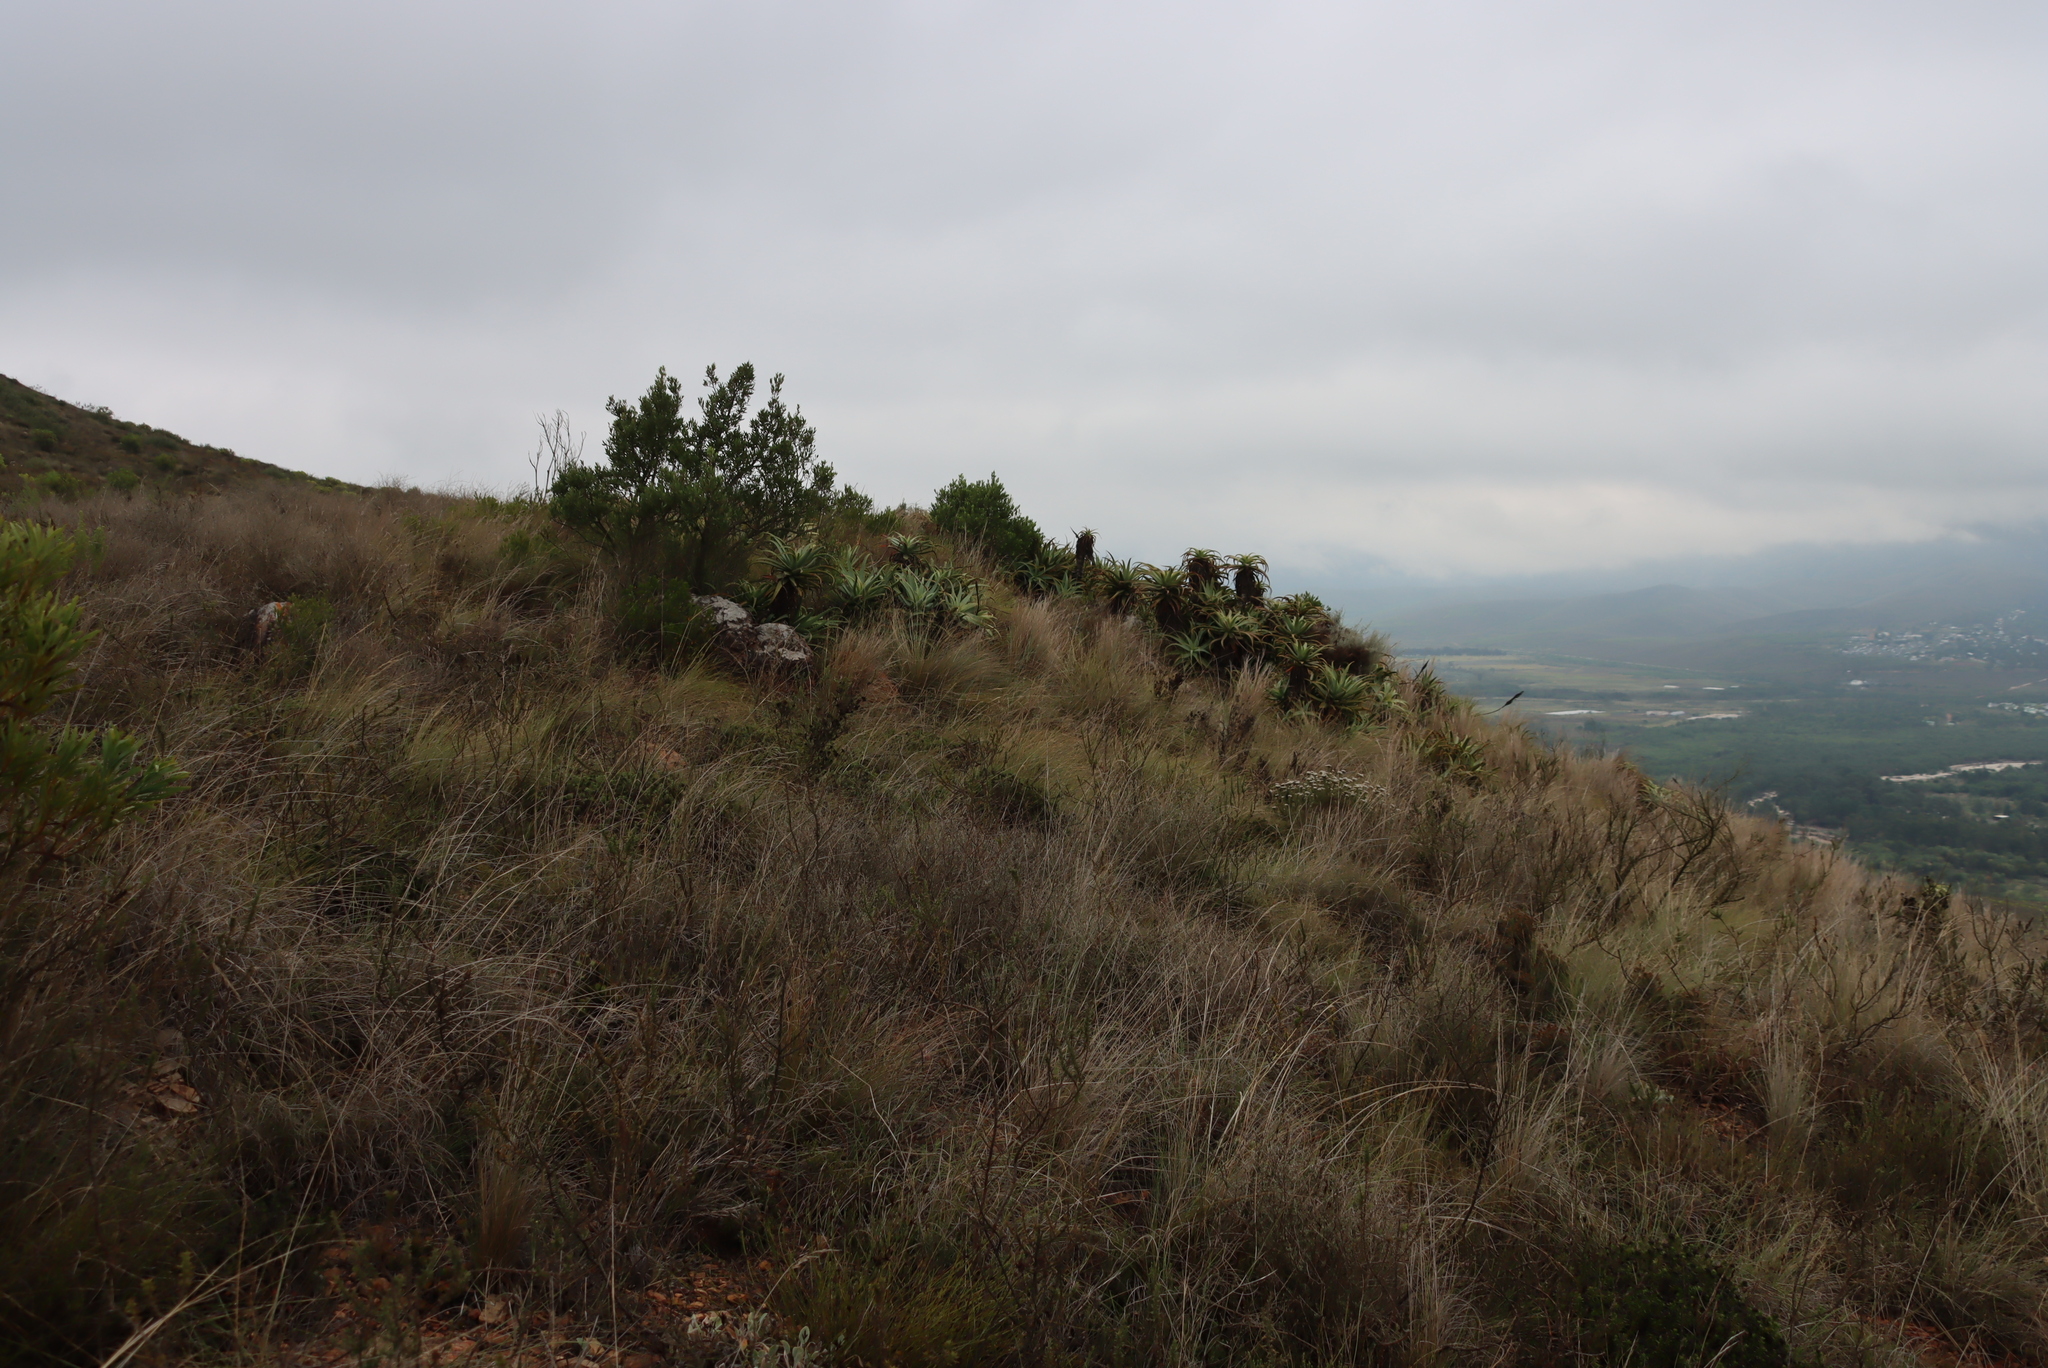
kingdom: Plantae
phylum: Tracheophyta
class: Liliopsida
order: Asparagales
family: Asphodelaceae
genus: Aloe
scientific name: Aloe arborescens
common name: Candelabra aloe
